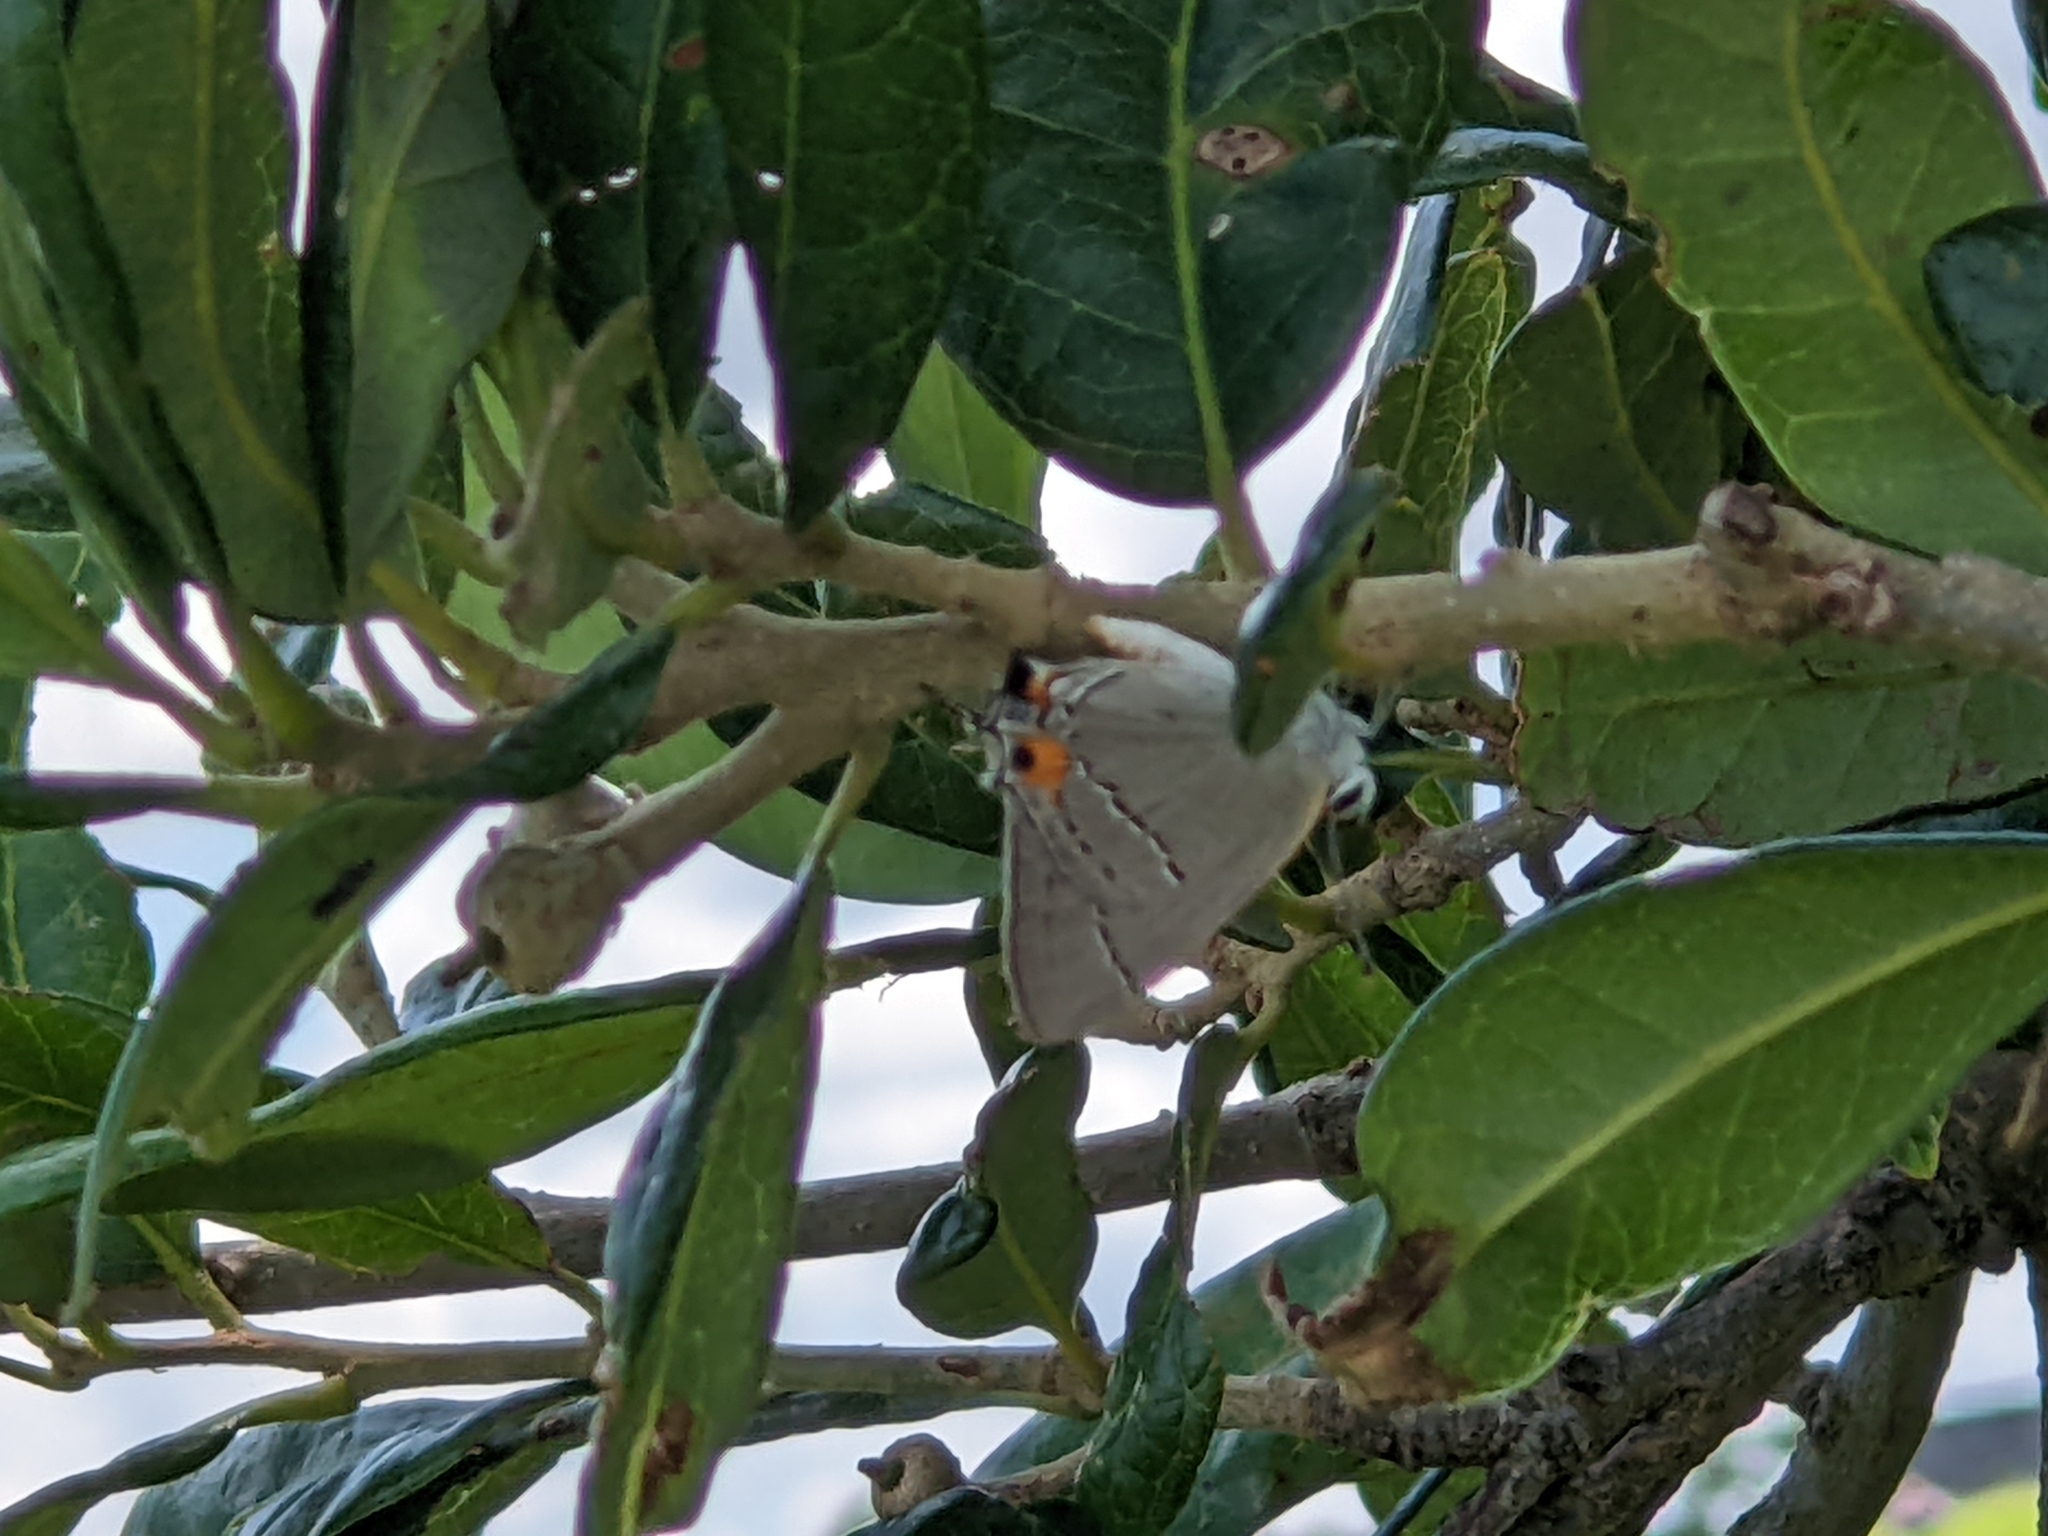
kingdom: Animalia
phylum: Arthropoda
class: Insecta
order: Lepidoptera
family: Lycaenidae
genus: Strymon
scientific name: Strymon melinus
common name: Gray hairstreak
